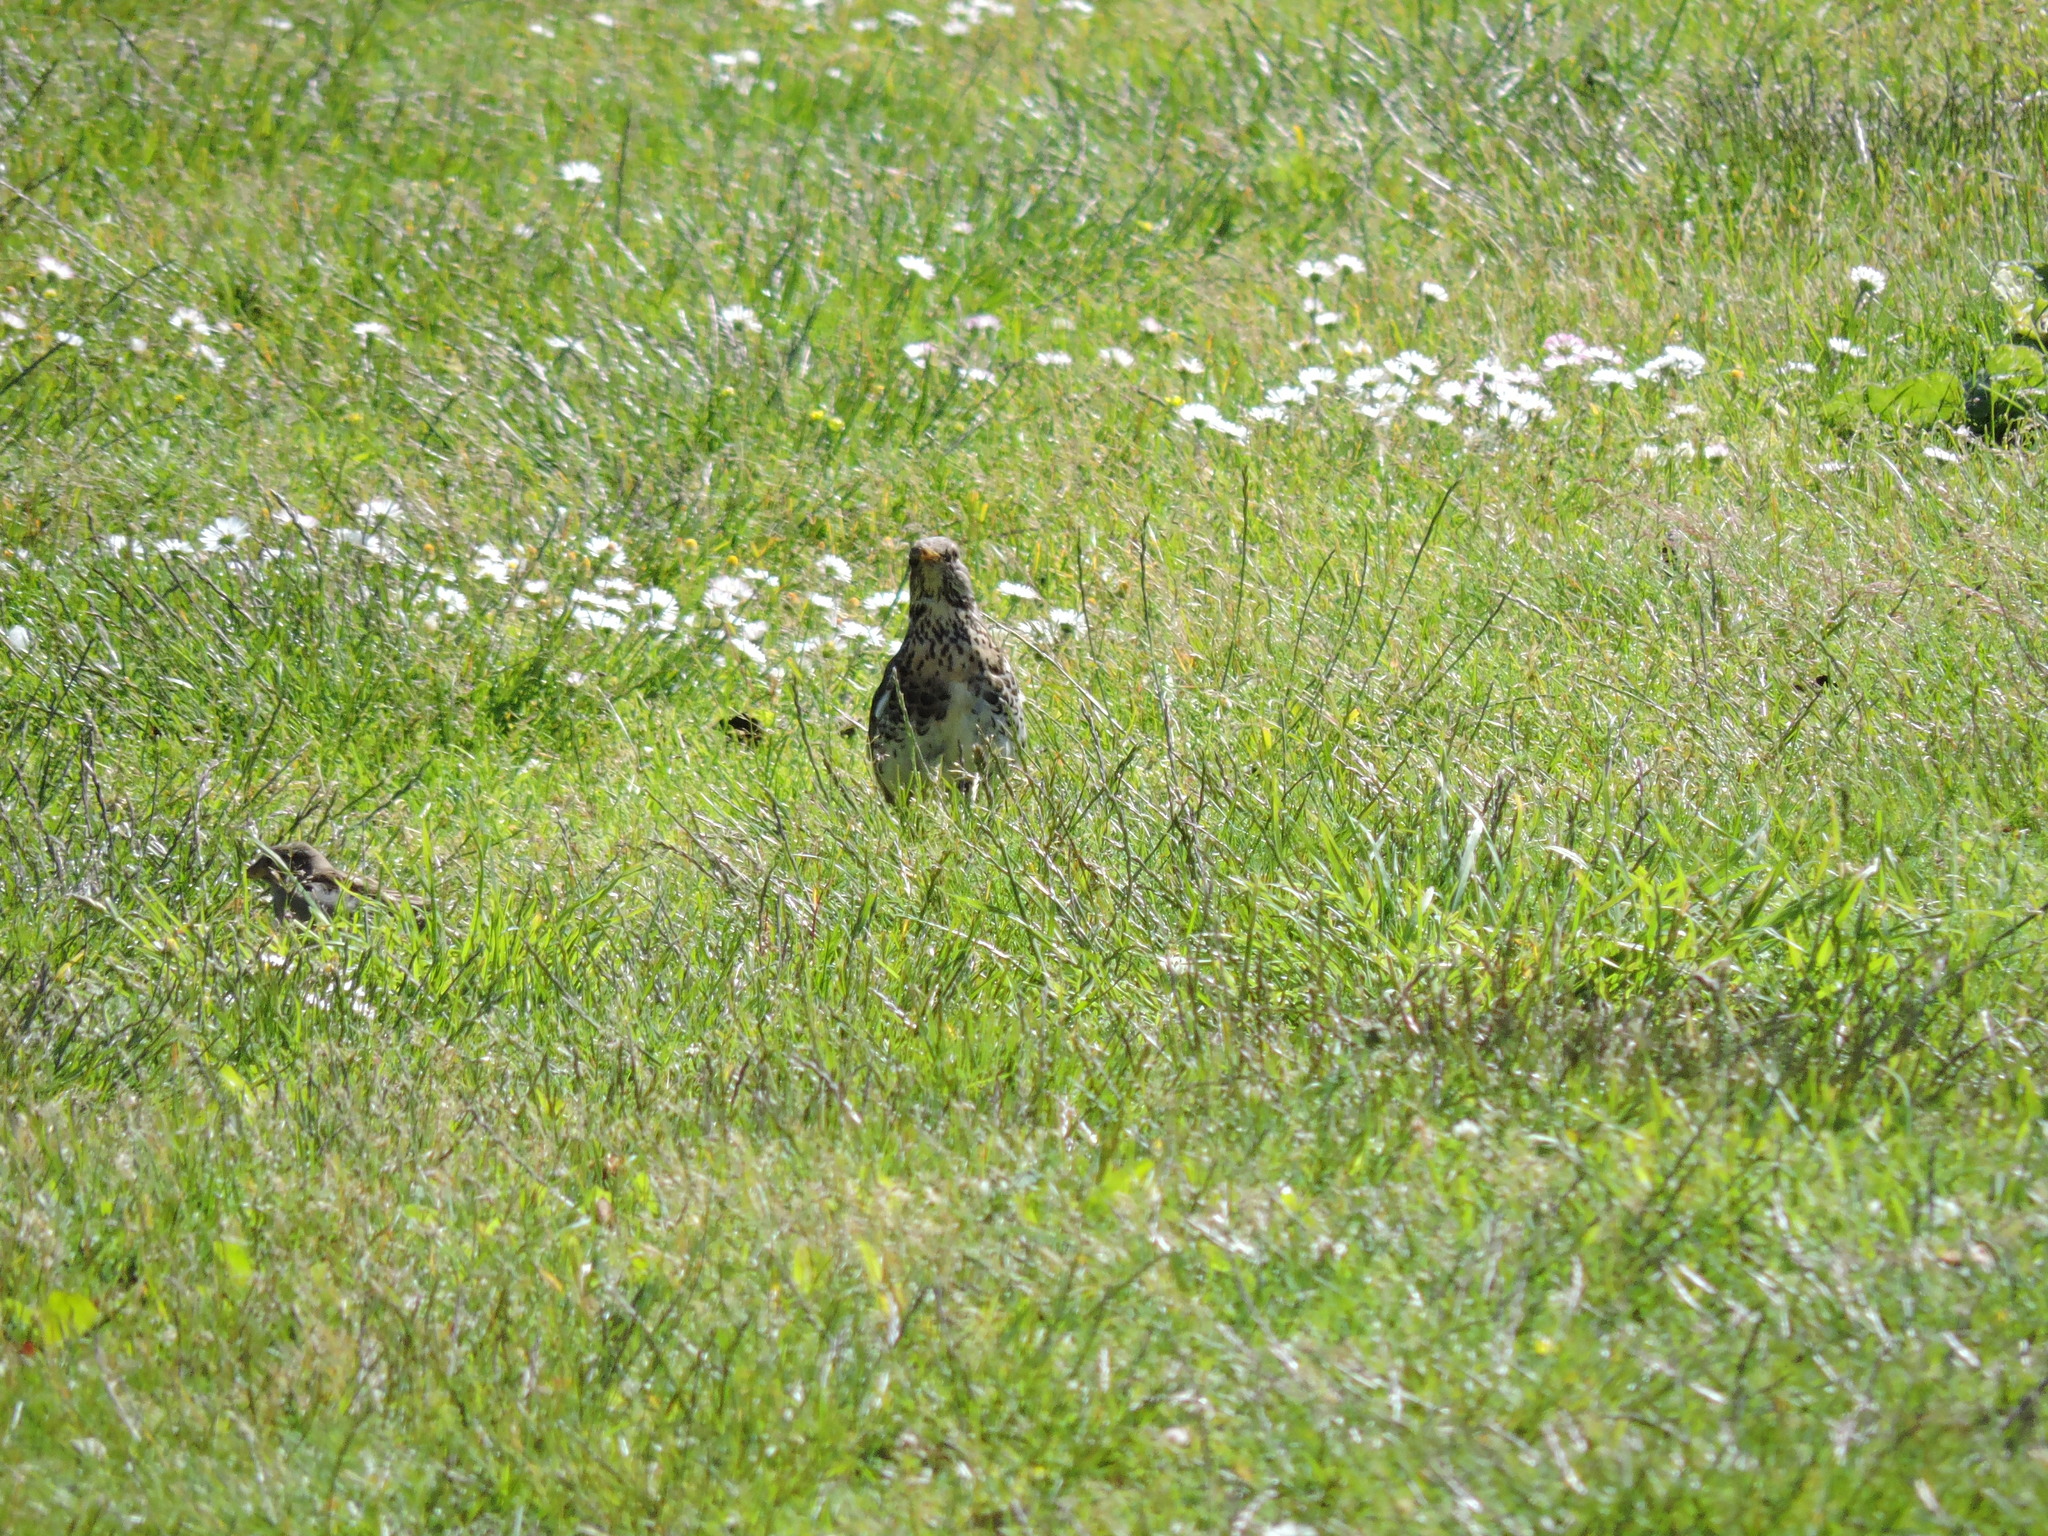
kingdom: Animalia
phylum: Chordata
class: Aves
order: Passeriformes
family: Turdidae
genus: Turdus
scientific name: Turdus pilaris
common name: Fieldfare
